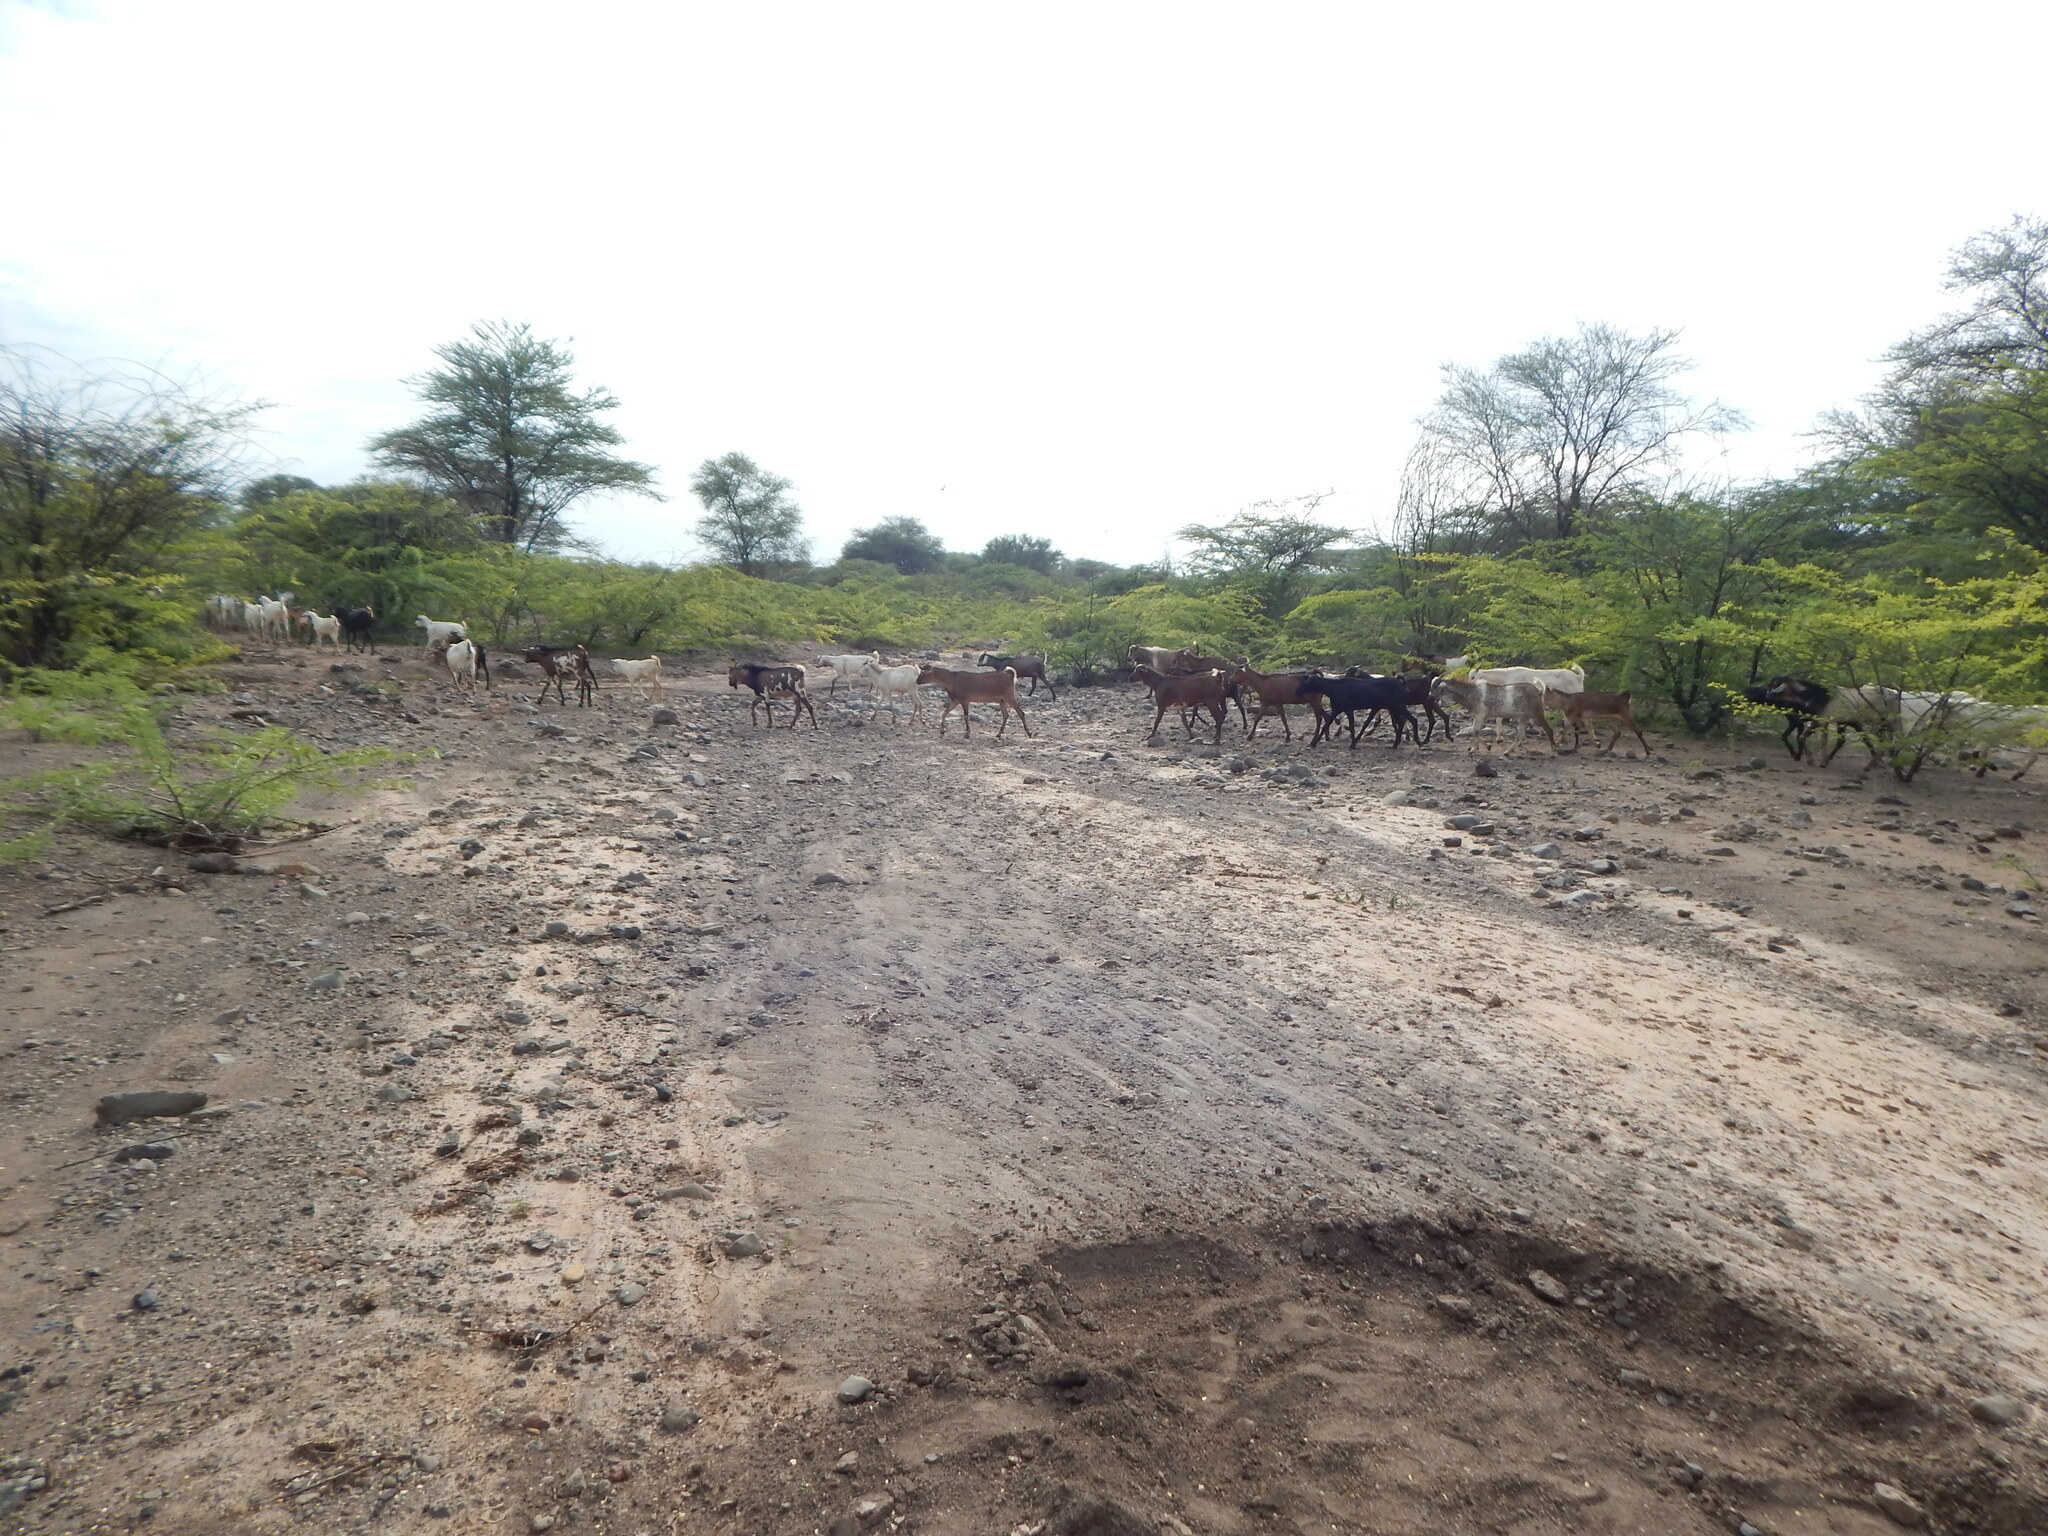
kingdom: Animalia
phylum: Chordata
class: Mammalia
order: Artiodactyla
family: Bovidae
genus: Capra
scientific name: Capra hircus
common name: Domestic goat
